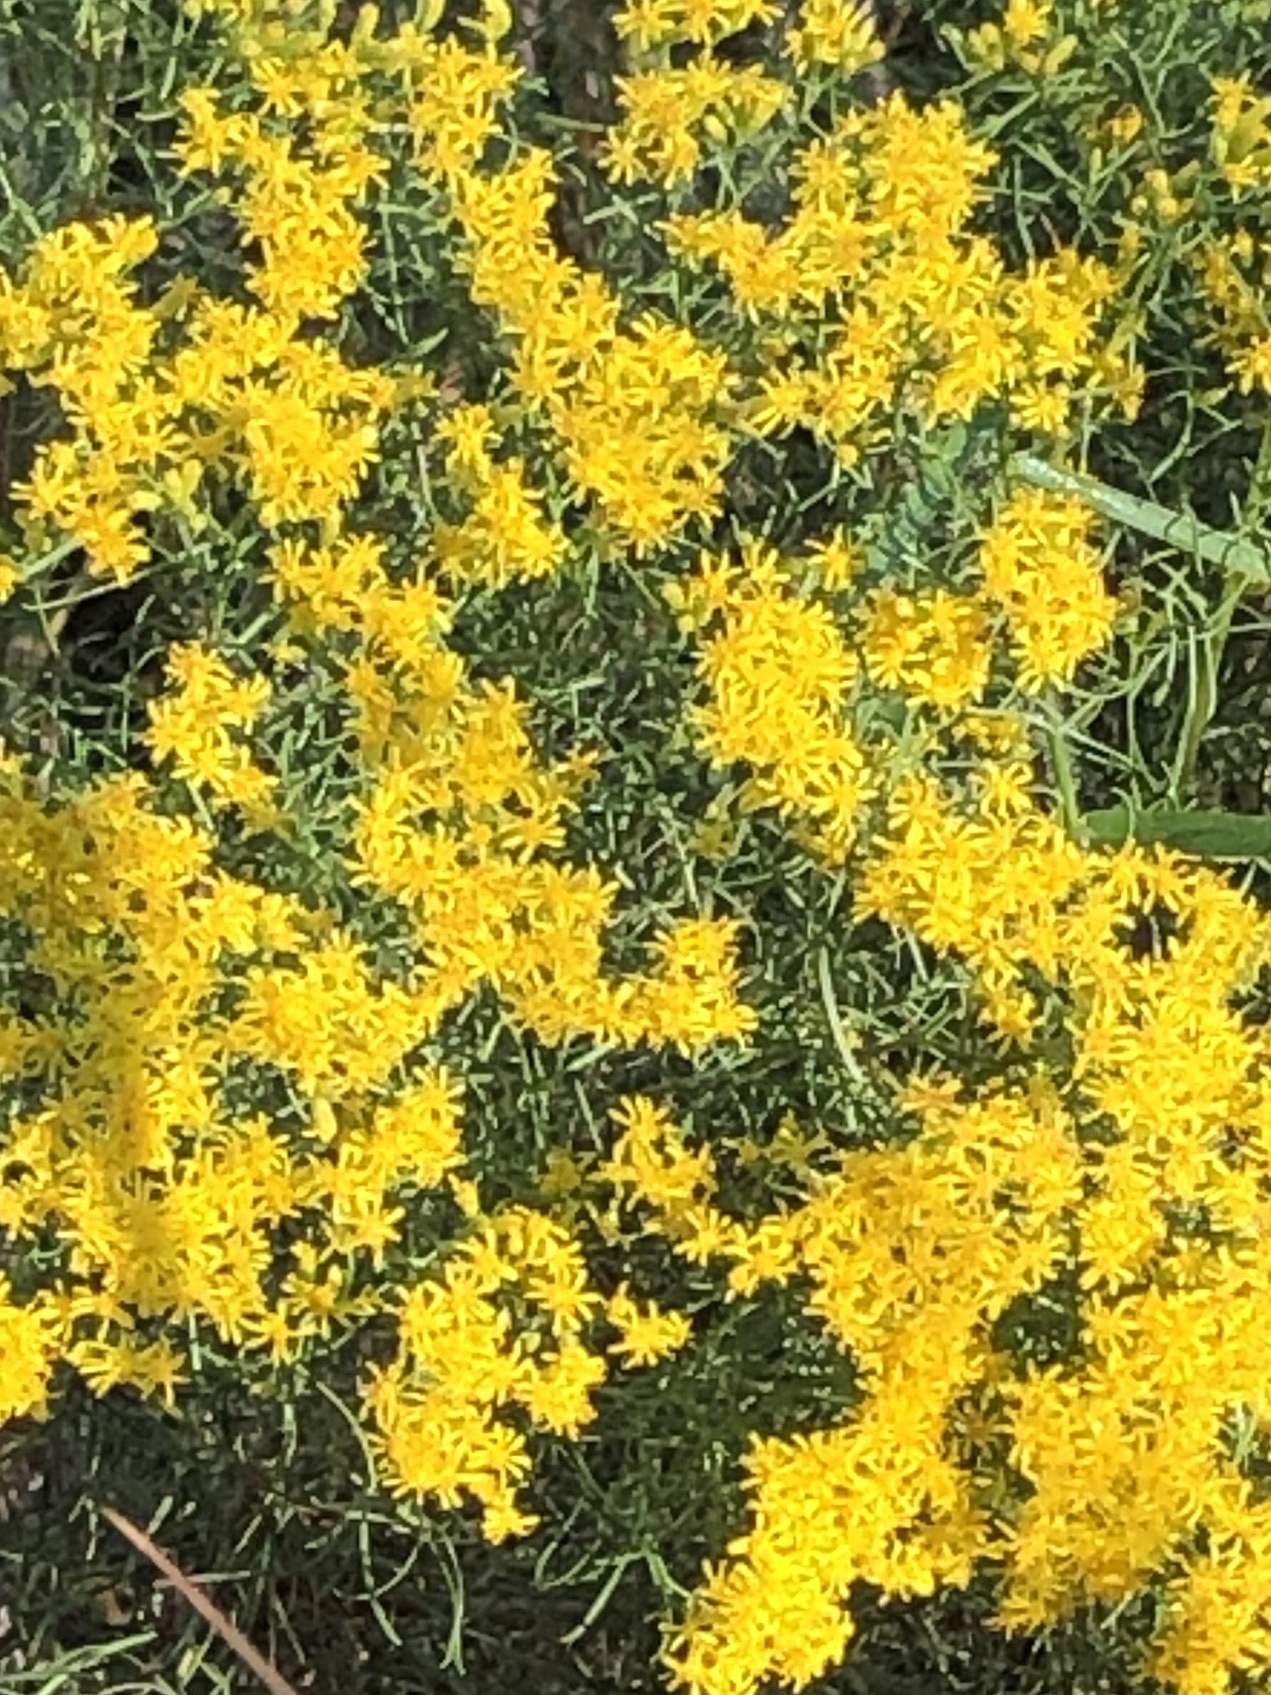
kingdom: Plantae
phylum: Tracheophyta
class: Magnoliopsida
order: Asterales
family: Asteraceae
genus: Euthamia
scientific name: Euthamia caroliniana
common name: Coastal plain goldentop
